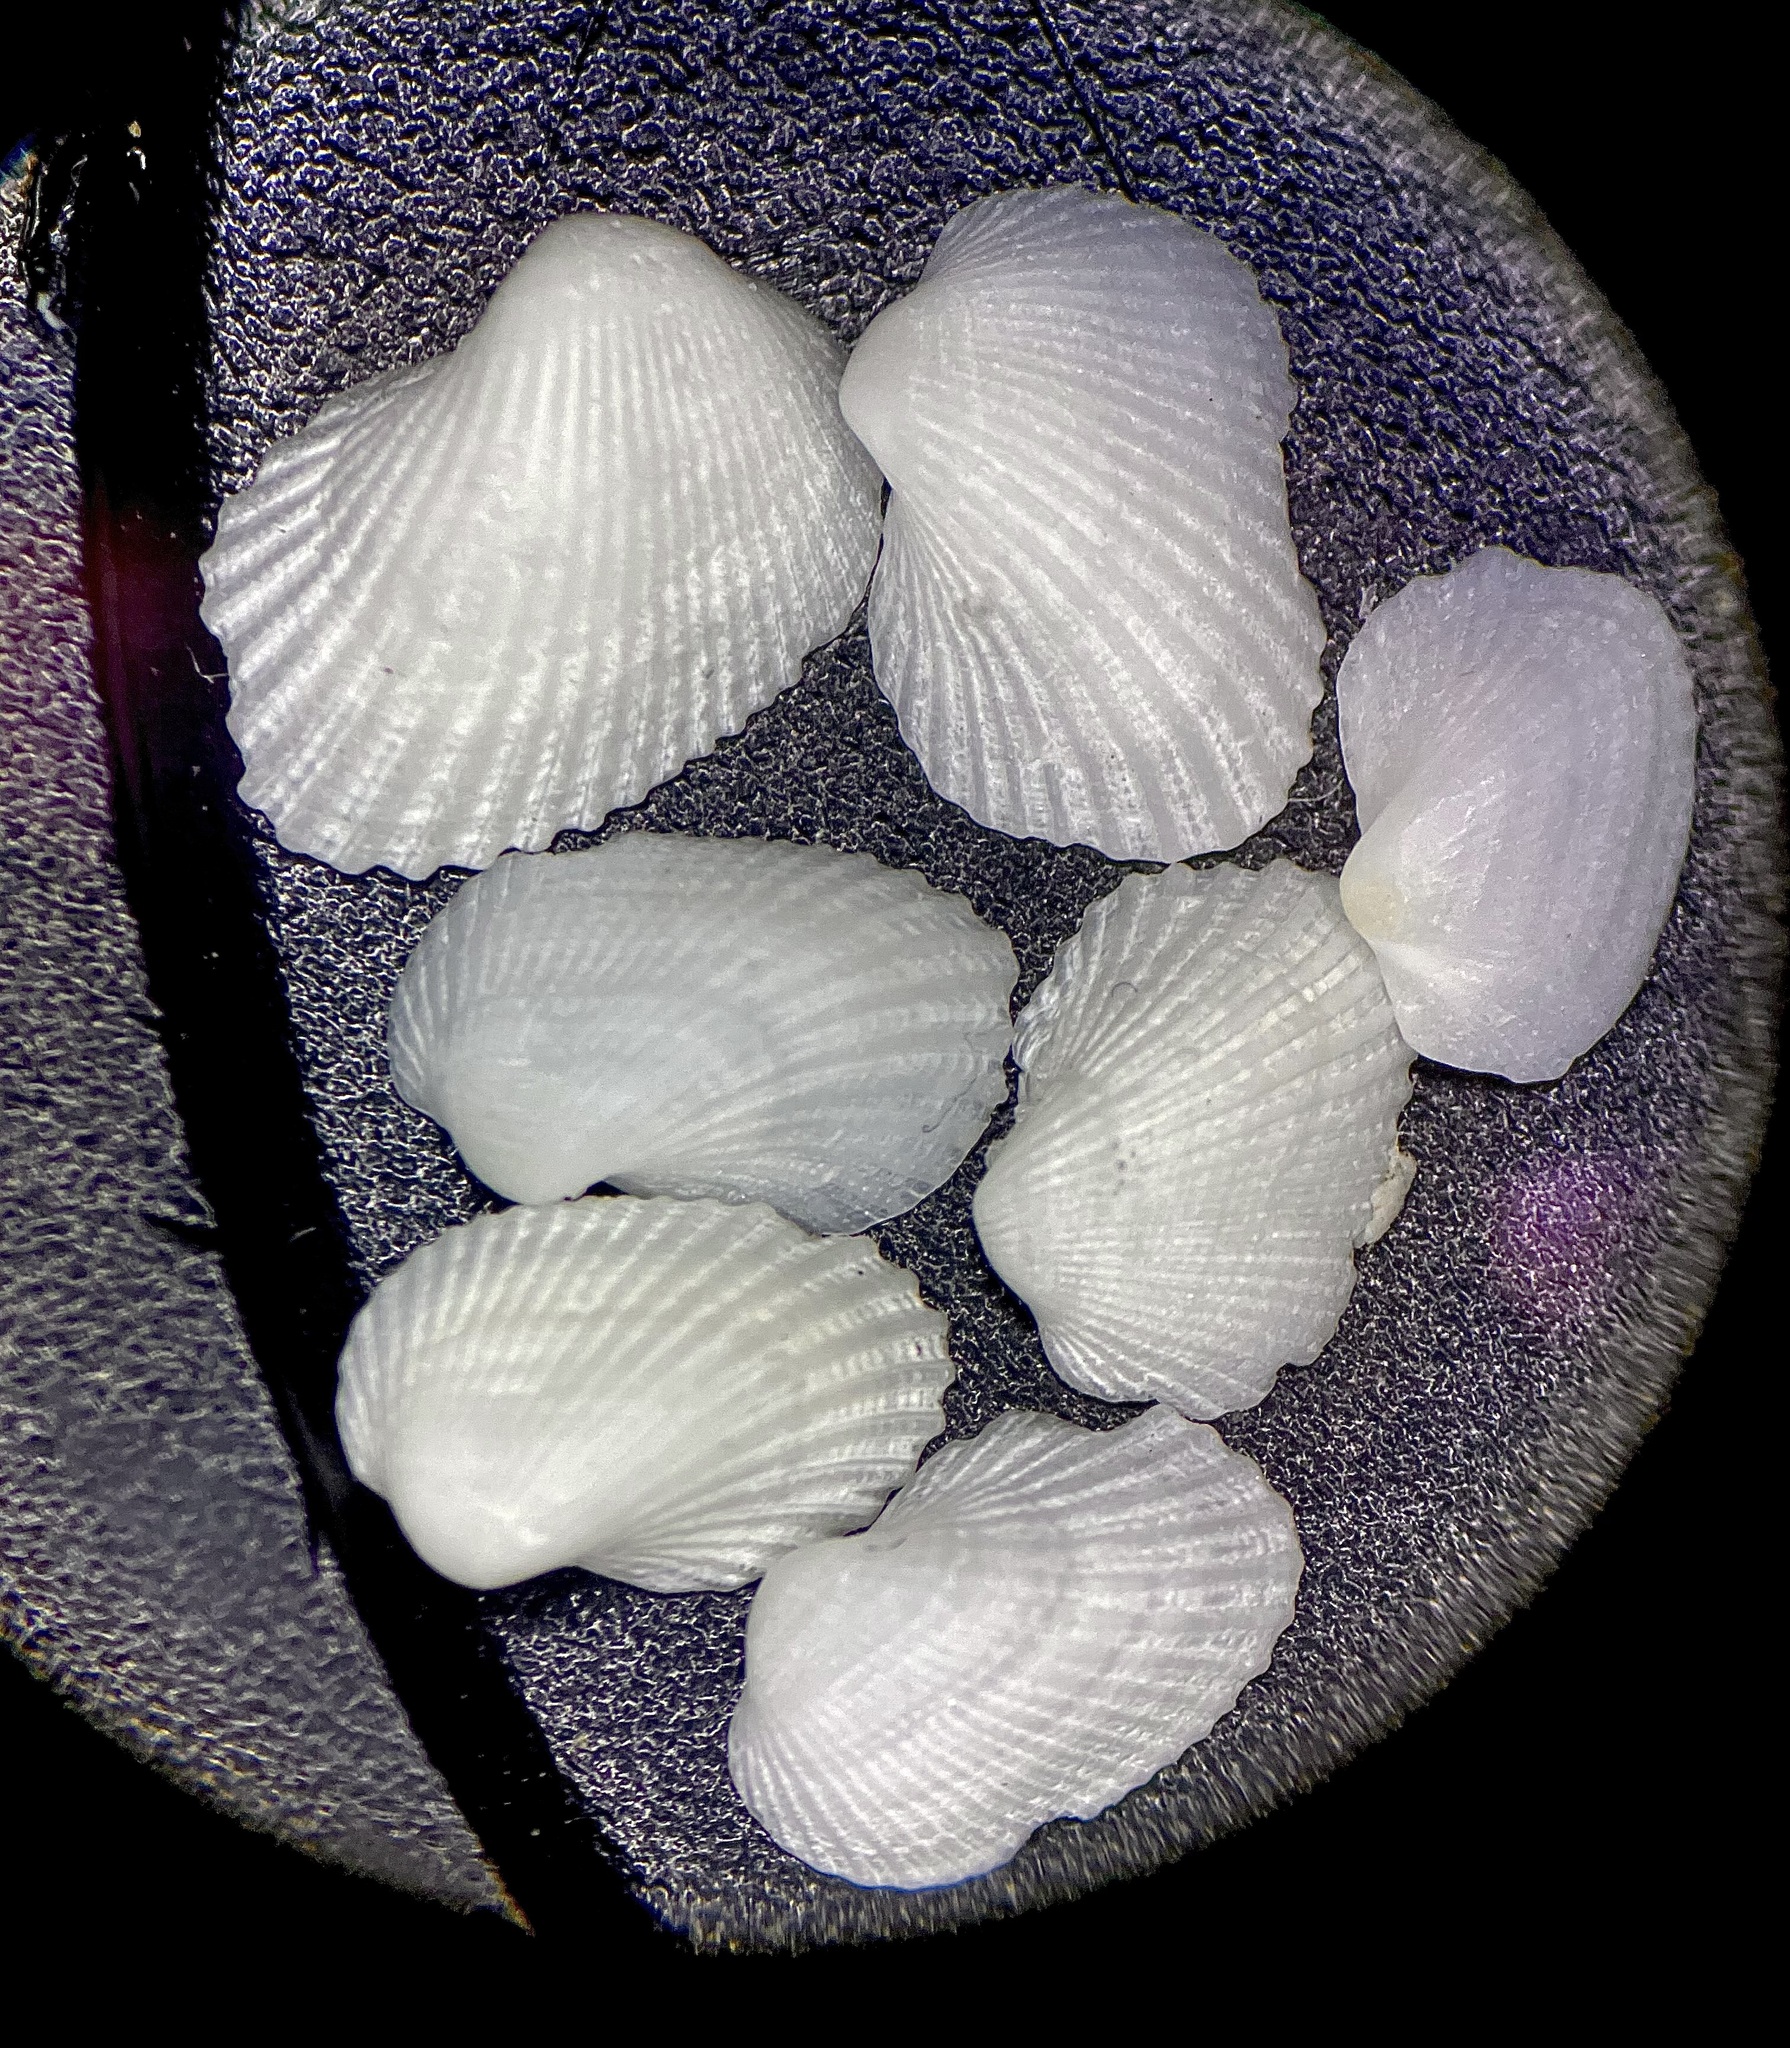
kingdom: Animalia
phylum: Mollusca
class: Bivalvia
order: Arcida
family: Noetiidae
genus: Noetia
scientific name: Noetia ponderosa
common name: Ponderous ark
